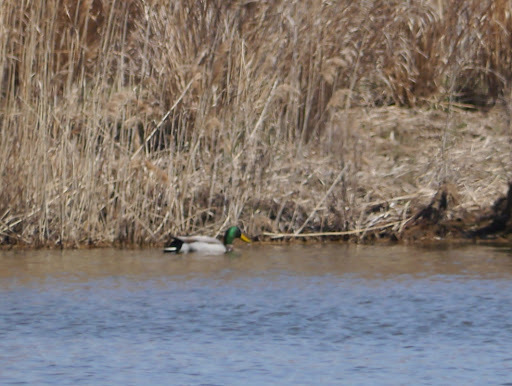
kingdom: Animalia
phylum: Chordata
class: Aves
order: Anseriformes
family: Anatidae
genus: Anas
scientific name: Anas platyrhynchos
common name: Mallard
